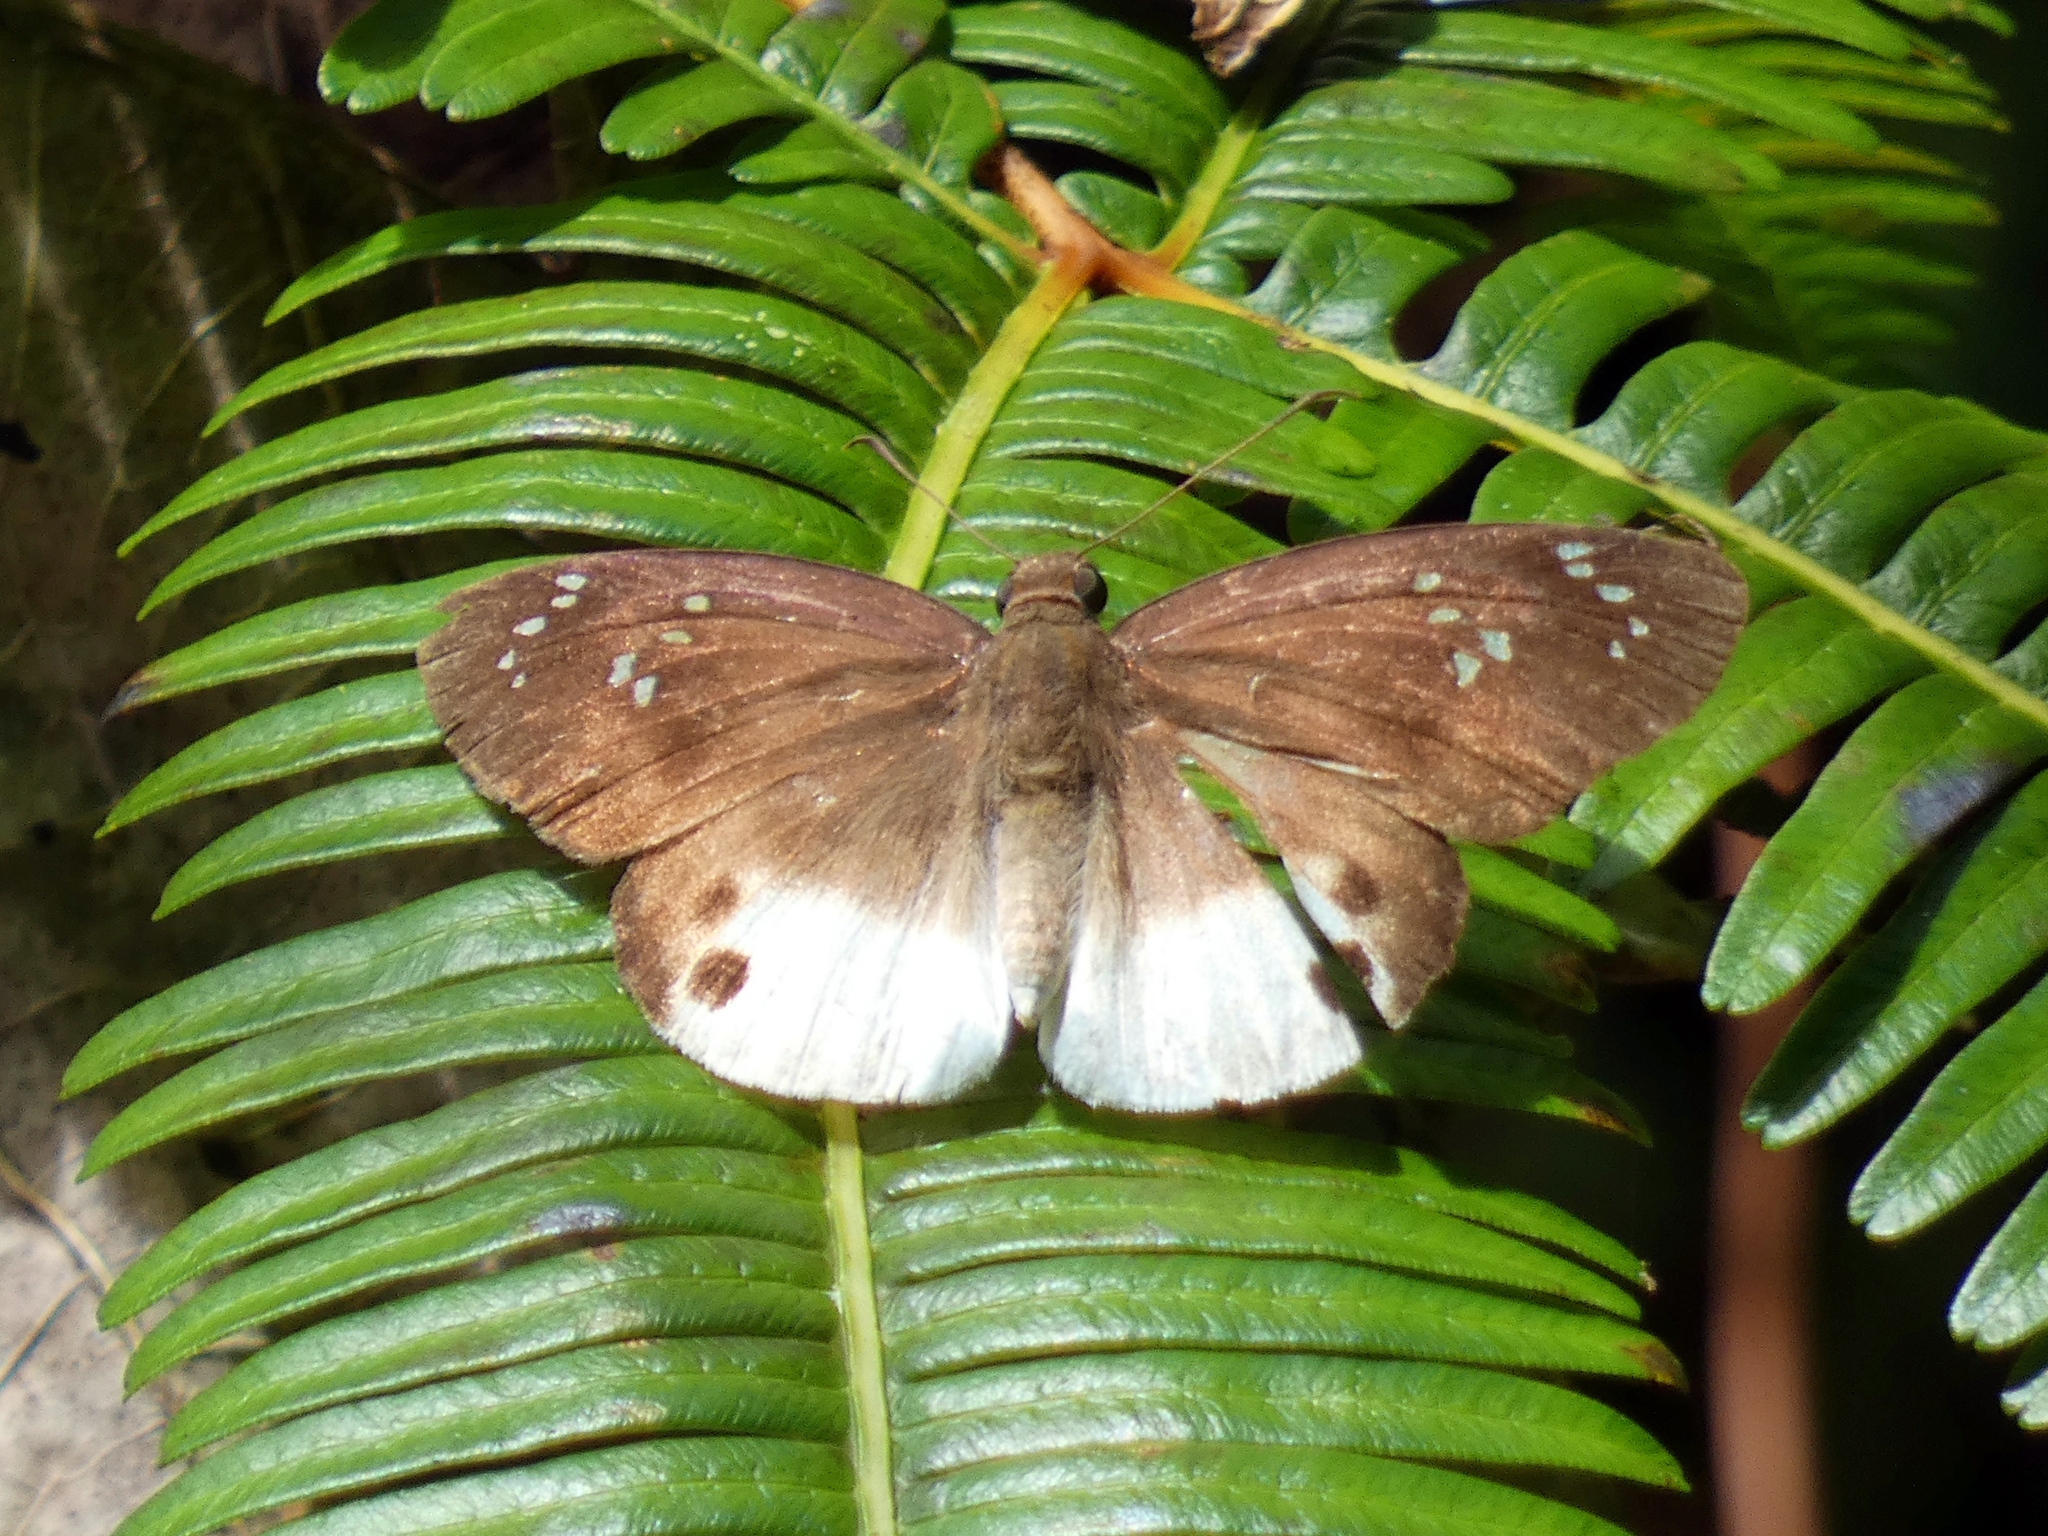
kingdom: Animalia
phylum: Arthropoda
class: Insecta
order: Lepidoptera
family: Hesperiidae
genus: Tagiades
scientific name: Tagiades japetus
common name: Pied flat
